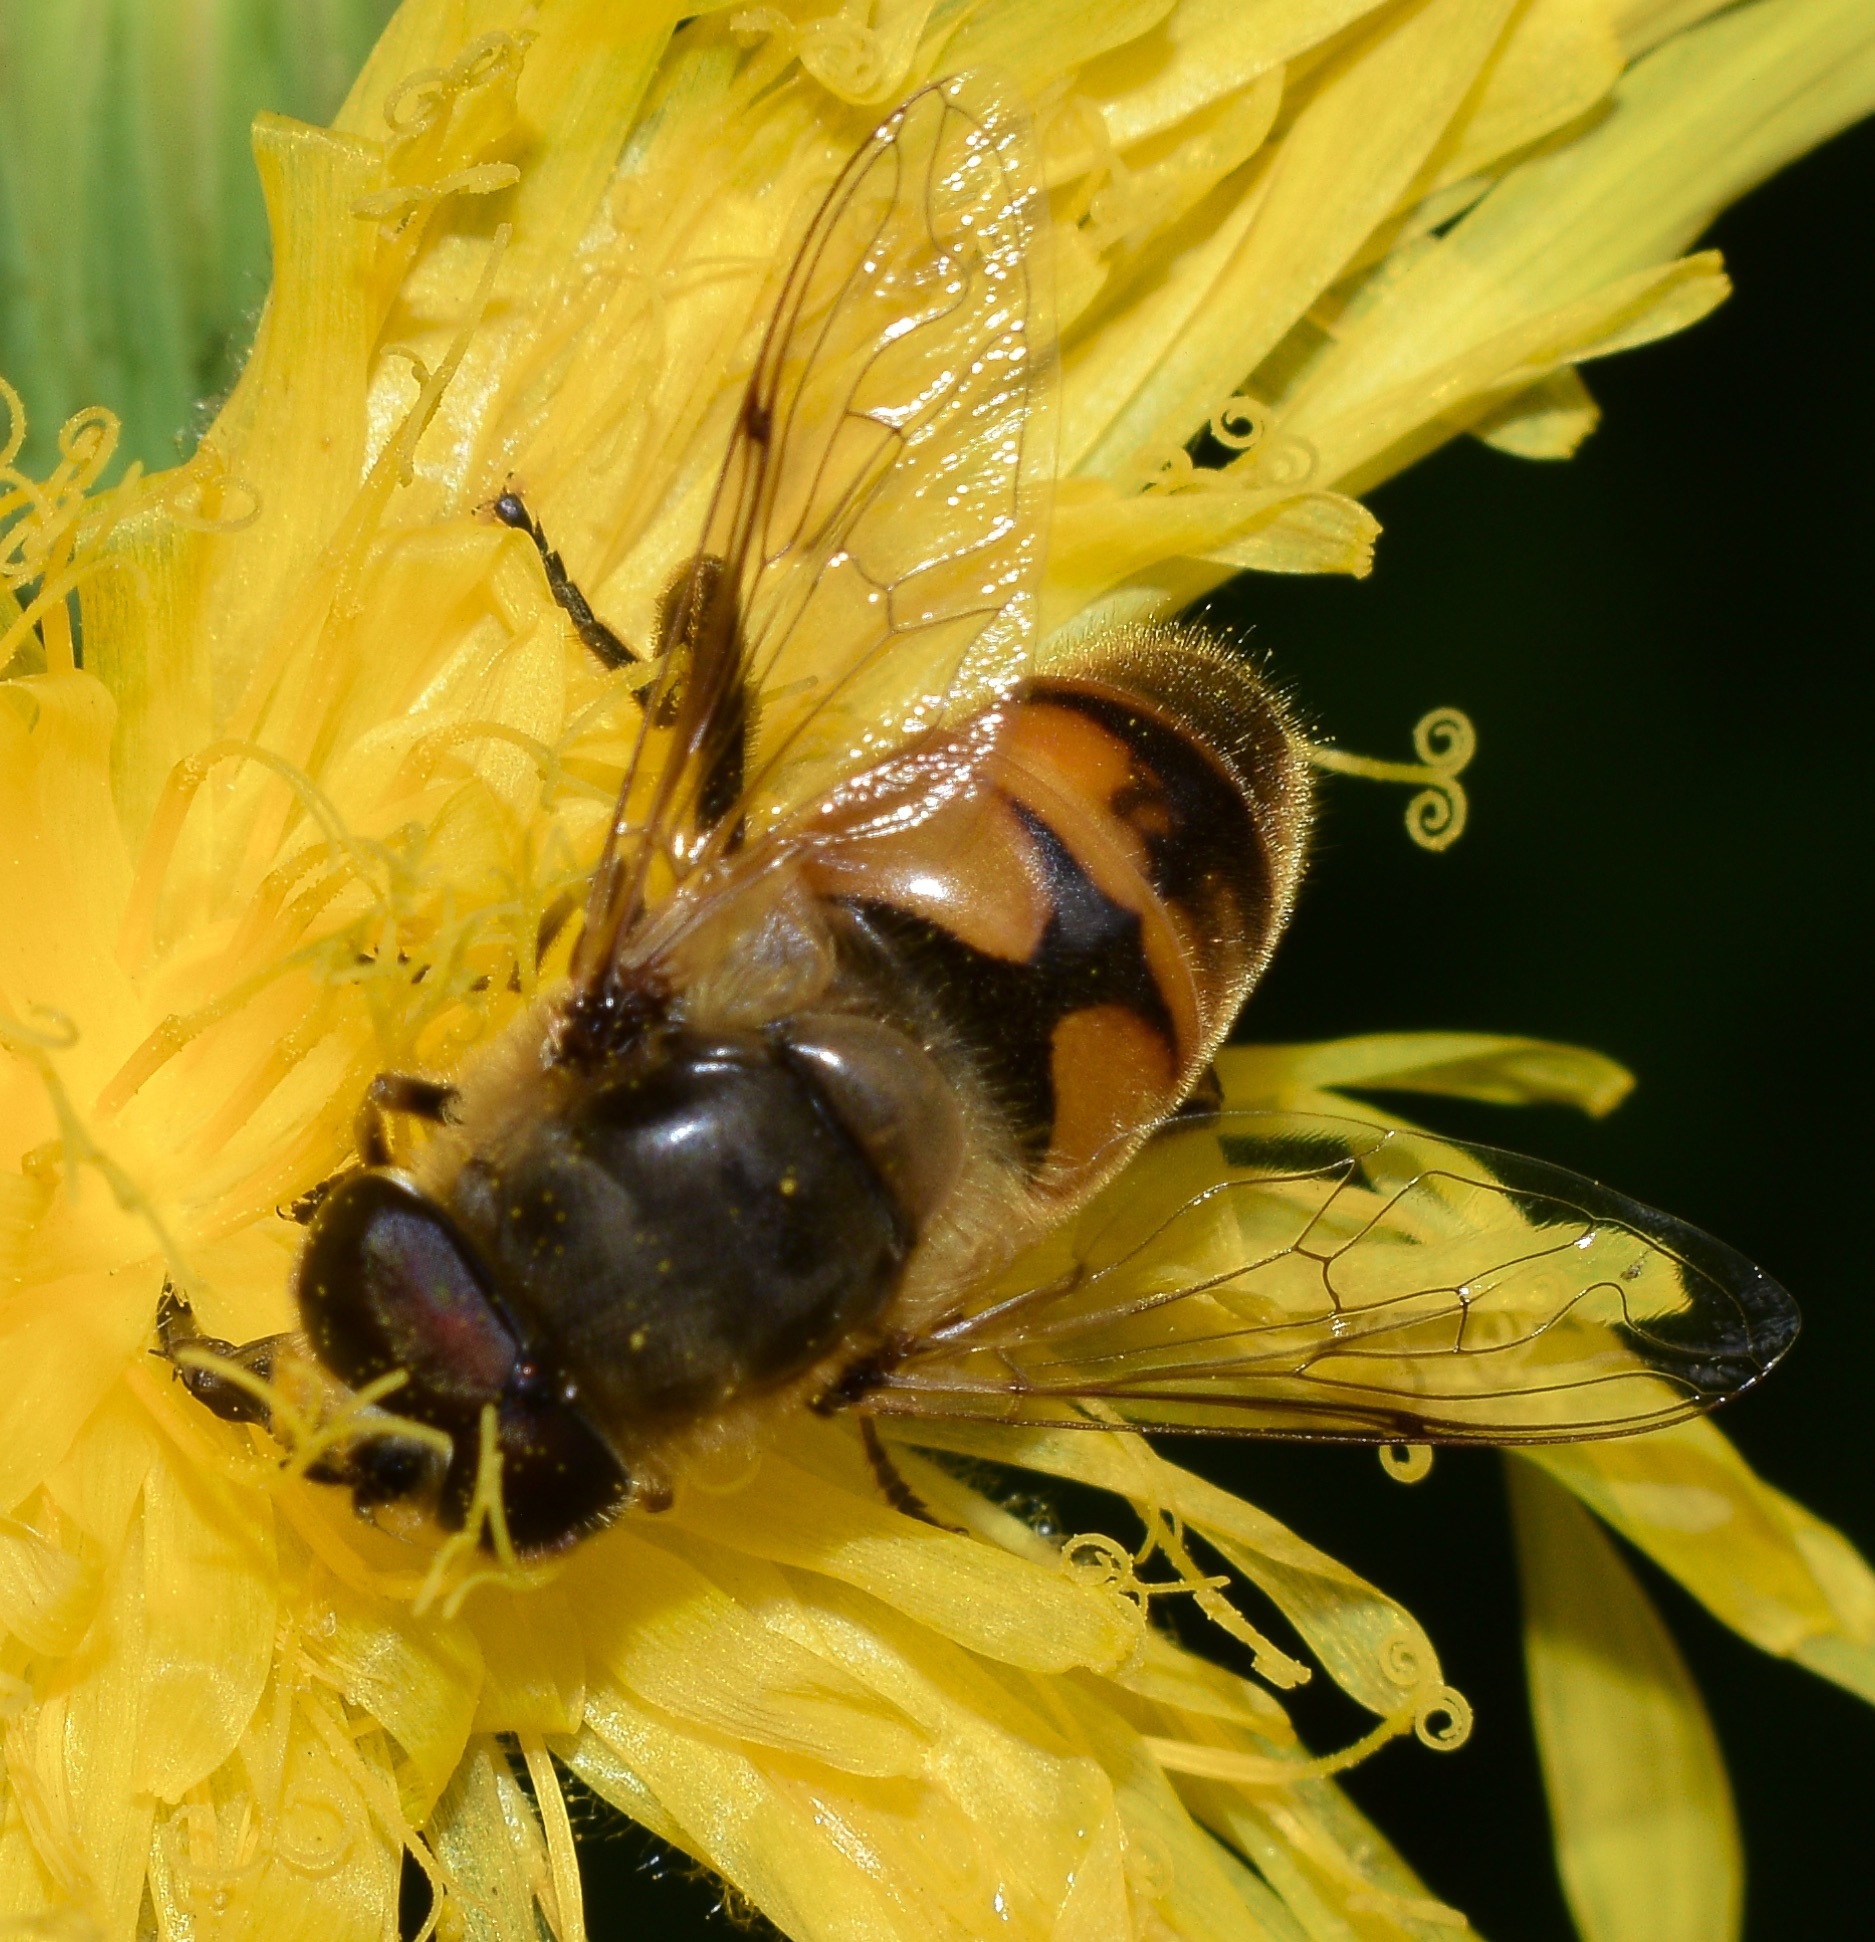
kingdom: Animalia
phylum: Arthropoda
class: Insecta
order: Diptera
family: Syrphidae
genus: Eristalis
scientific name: Eristalis tenax
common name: Drone fly
